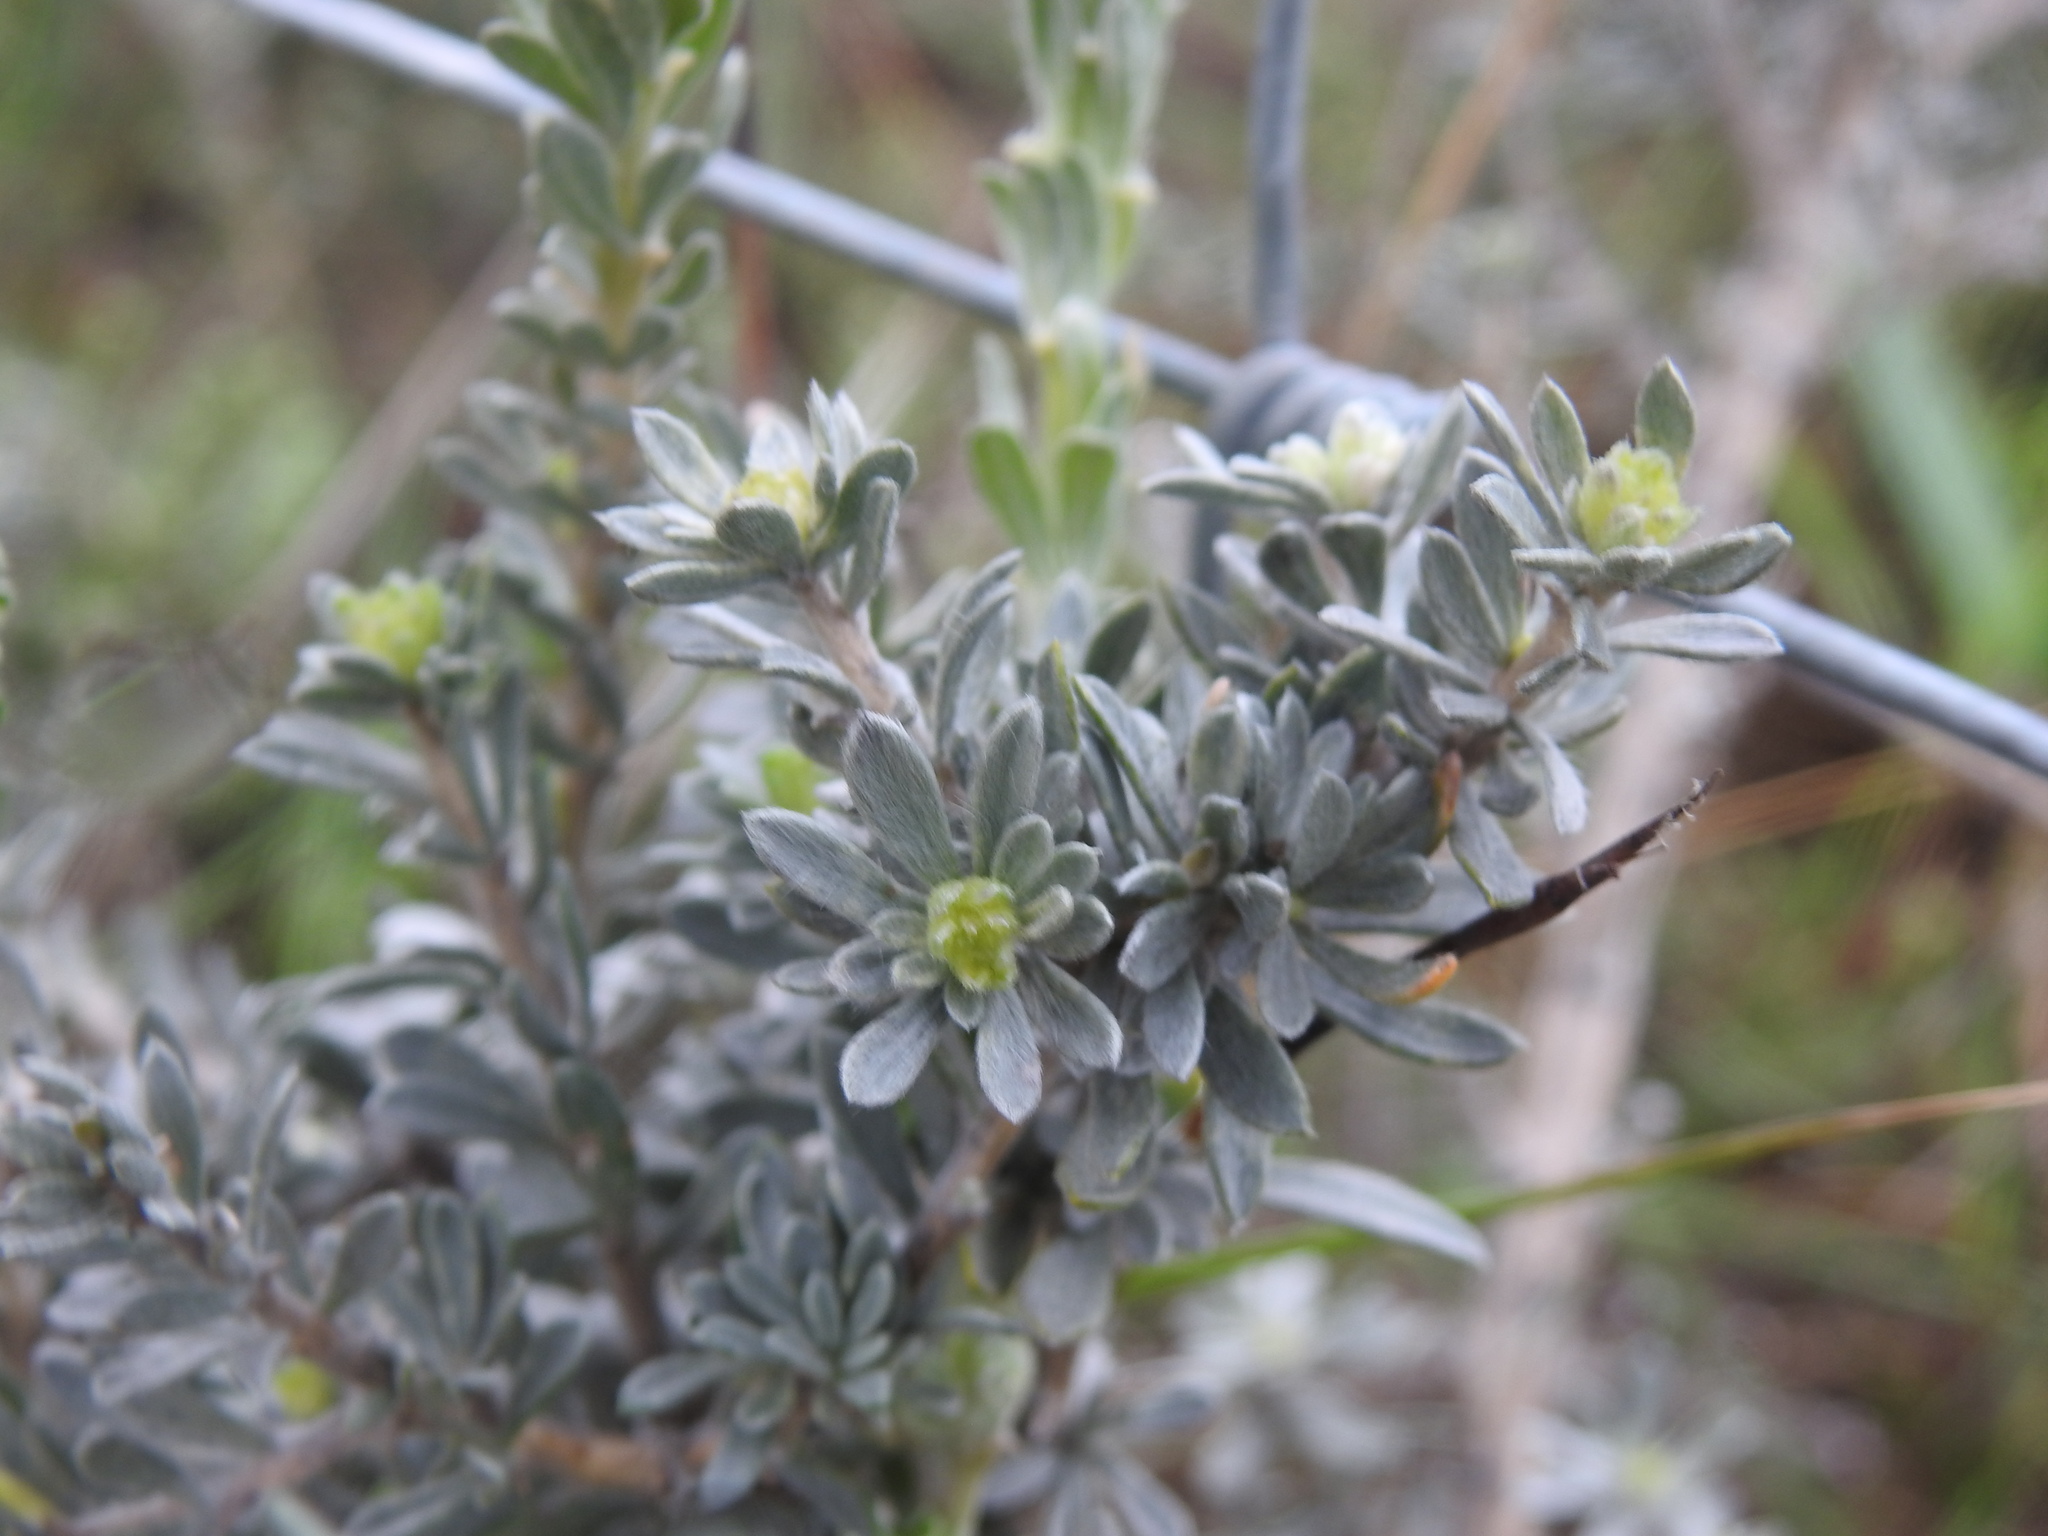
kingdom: Plantae
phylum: Tracheophyta
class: Magnoliopsida
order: Fabales
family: Fabaceae
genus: Aspalathus
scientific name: Aspalathus ternata
